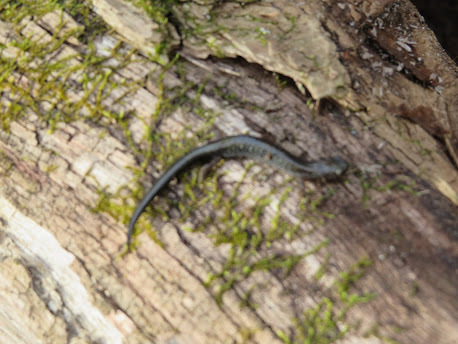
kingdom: Animalia
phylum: Chordata
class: Amphibia
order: Caudata
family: Plethodontidae
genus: Plethodon
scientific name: Plethodon cinereus
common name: Redback salamander
